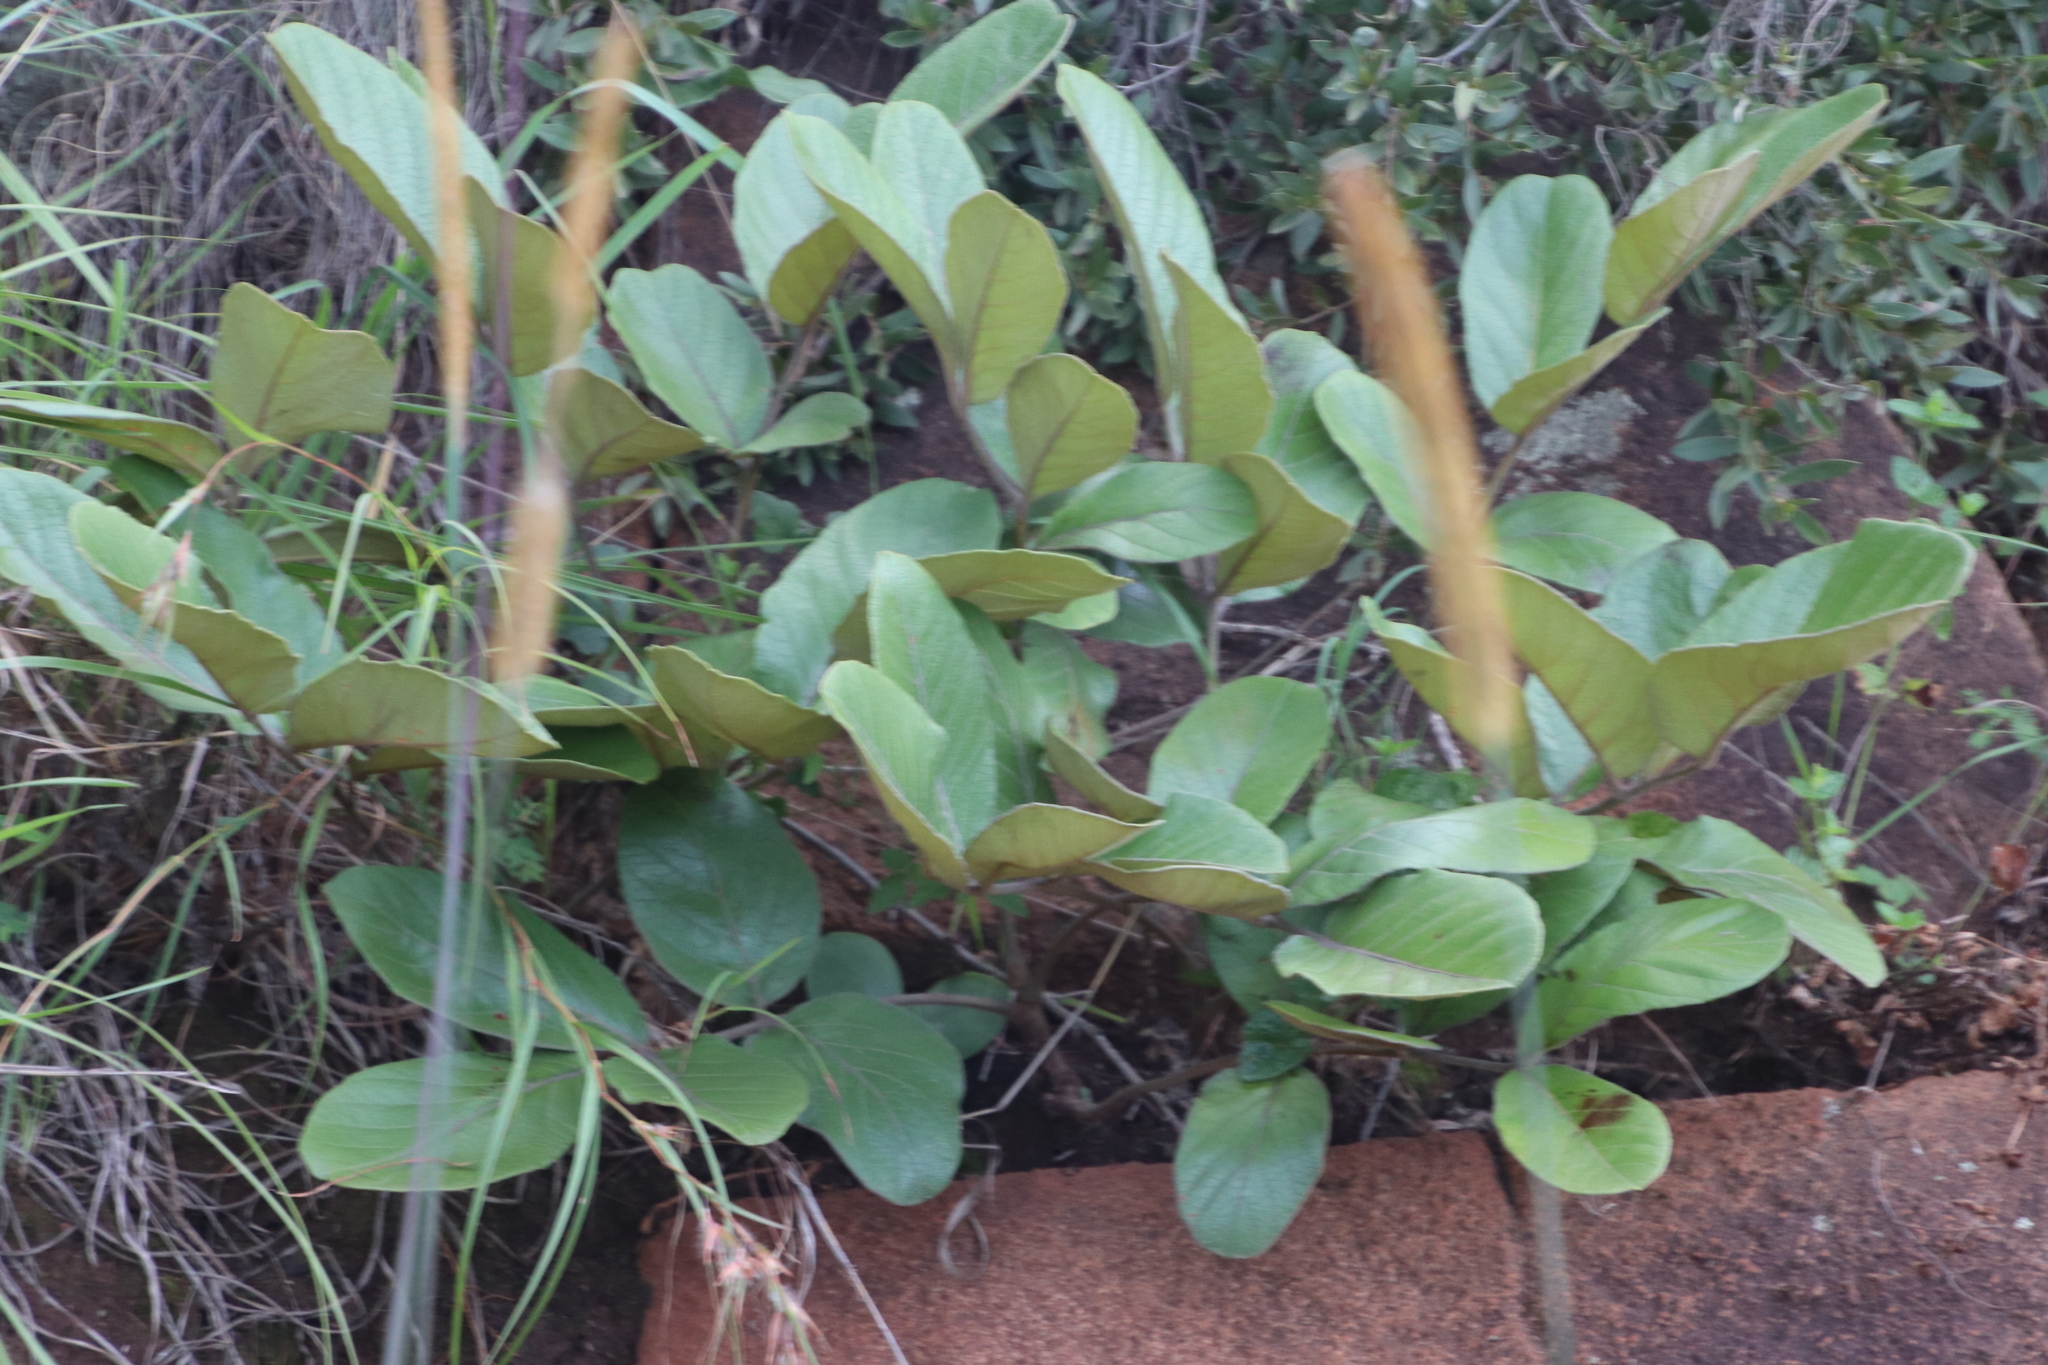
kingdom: Plantae
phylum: Tracheophyta
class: Magnoliopsida
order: Sapindales
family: Anacardiaceae
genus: Lannea
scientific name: Lannea edulis
